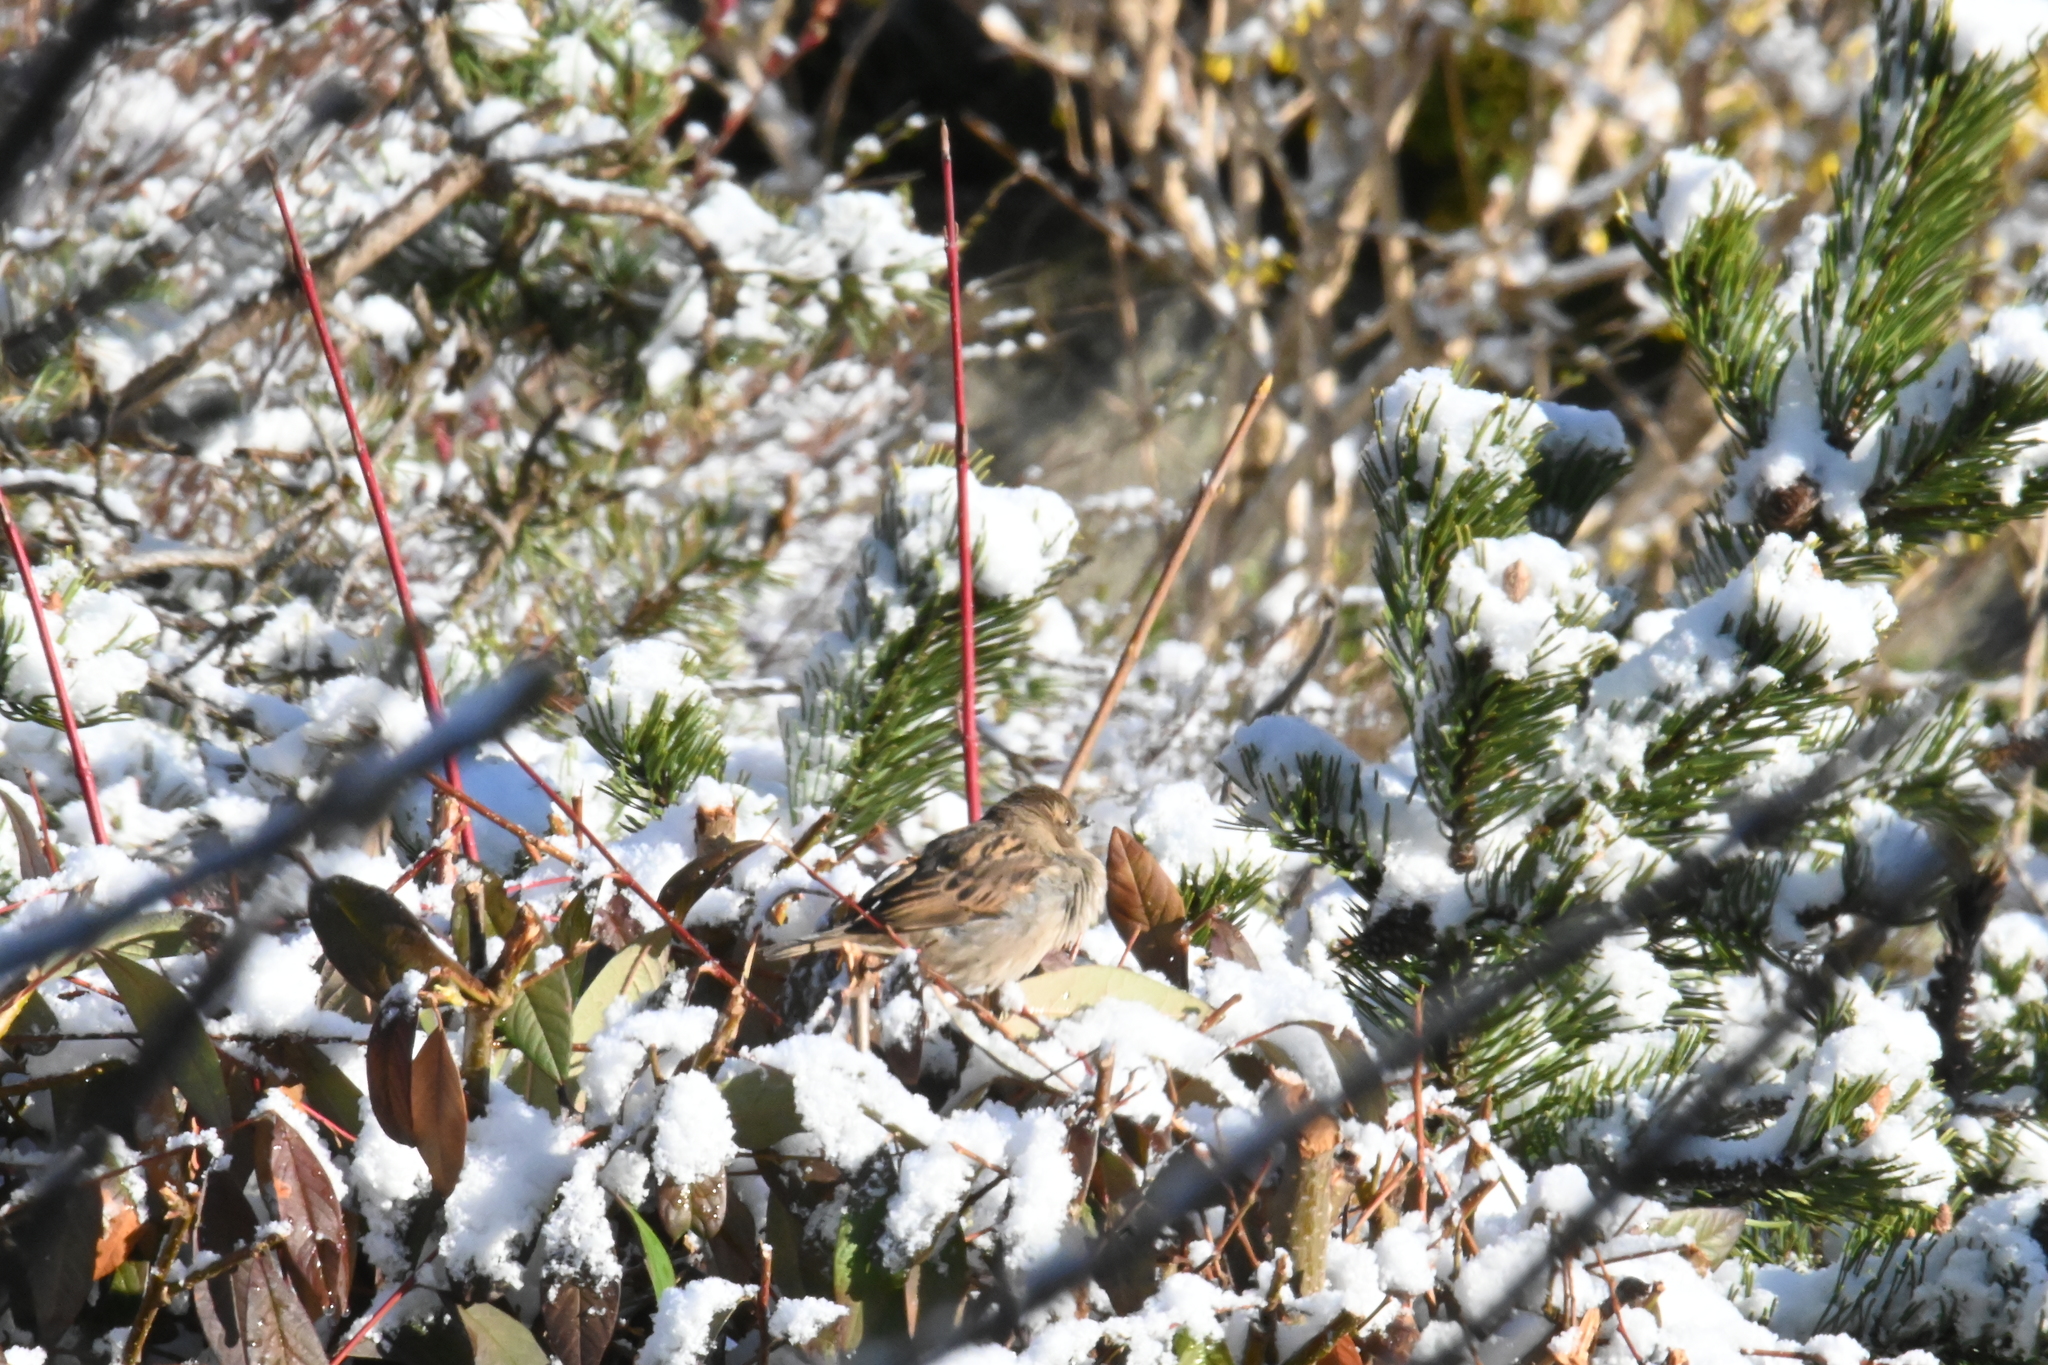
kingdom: Animalia
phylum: Chordata
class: Aves
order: Passeriformes
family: Passeridae
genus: Passer
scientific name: Passer domesticus
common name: House sparrow
